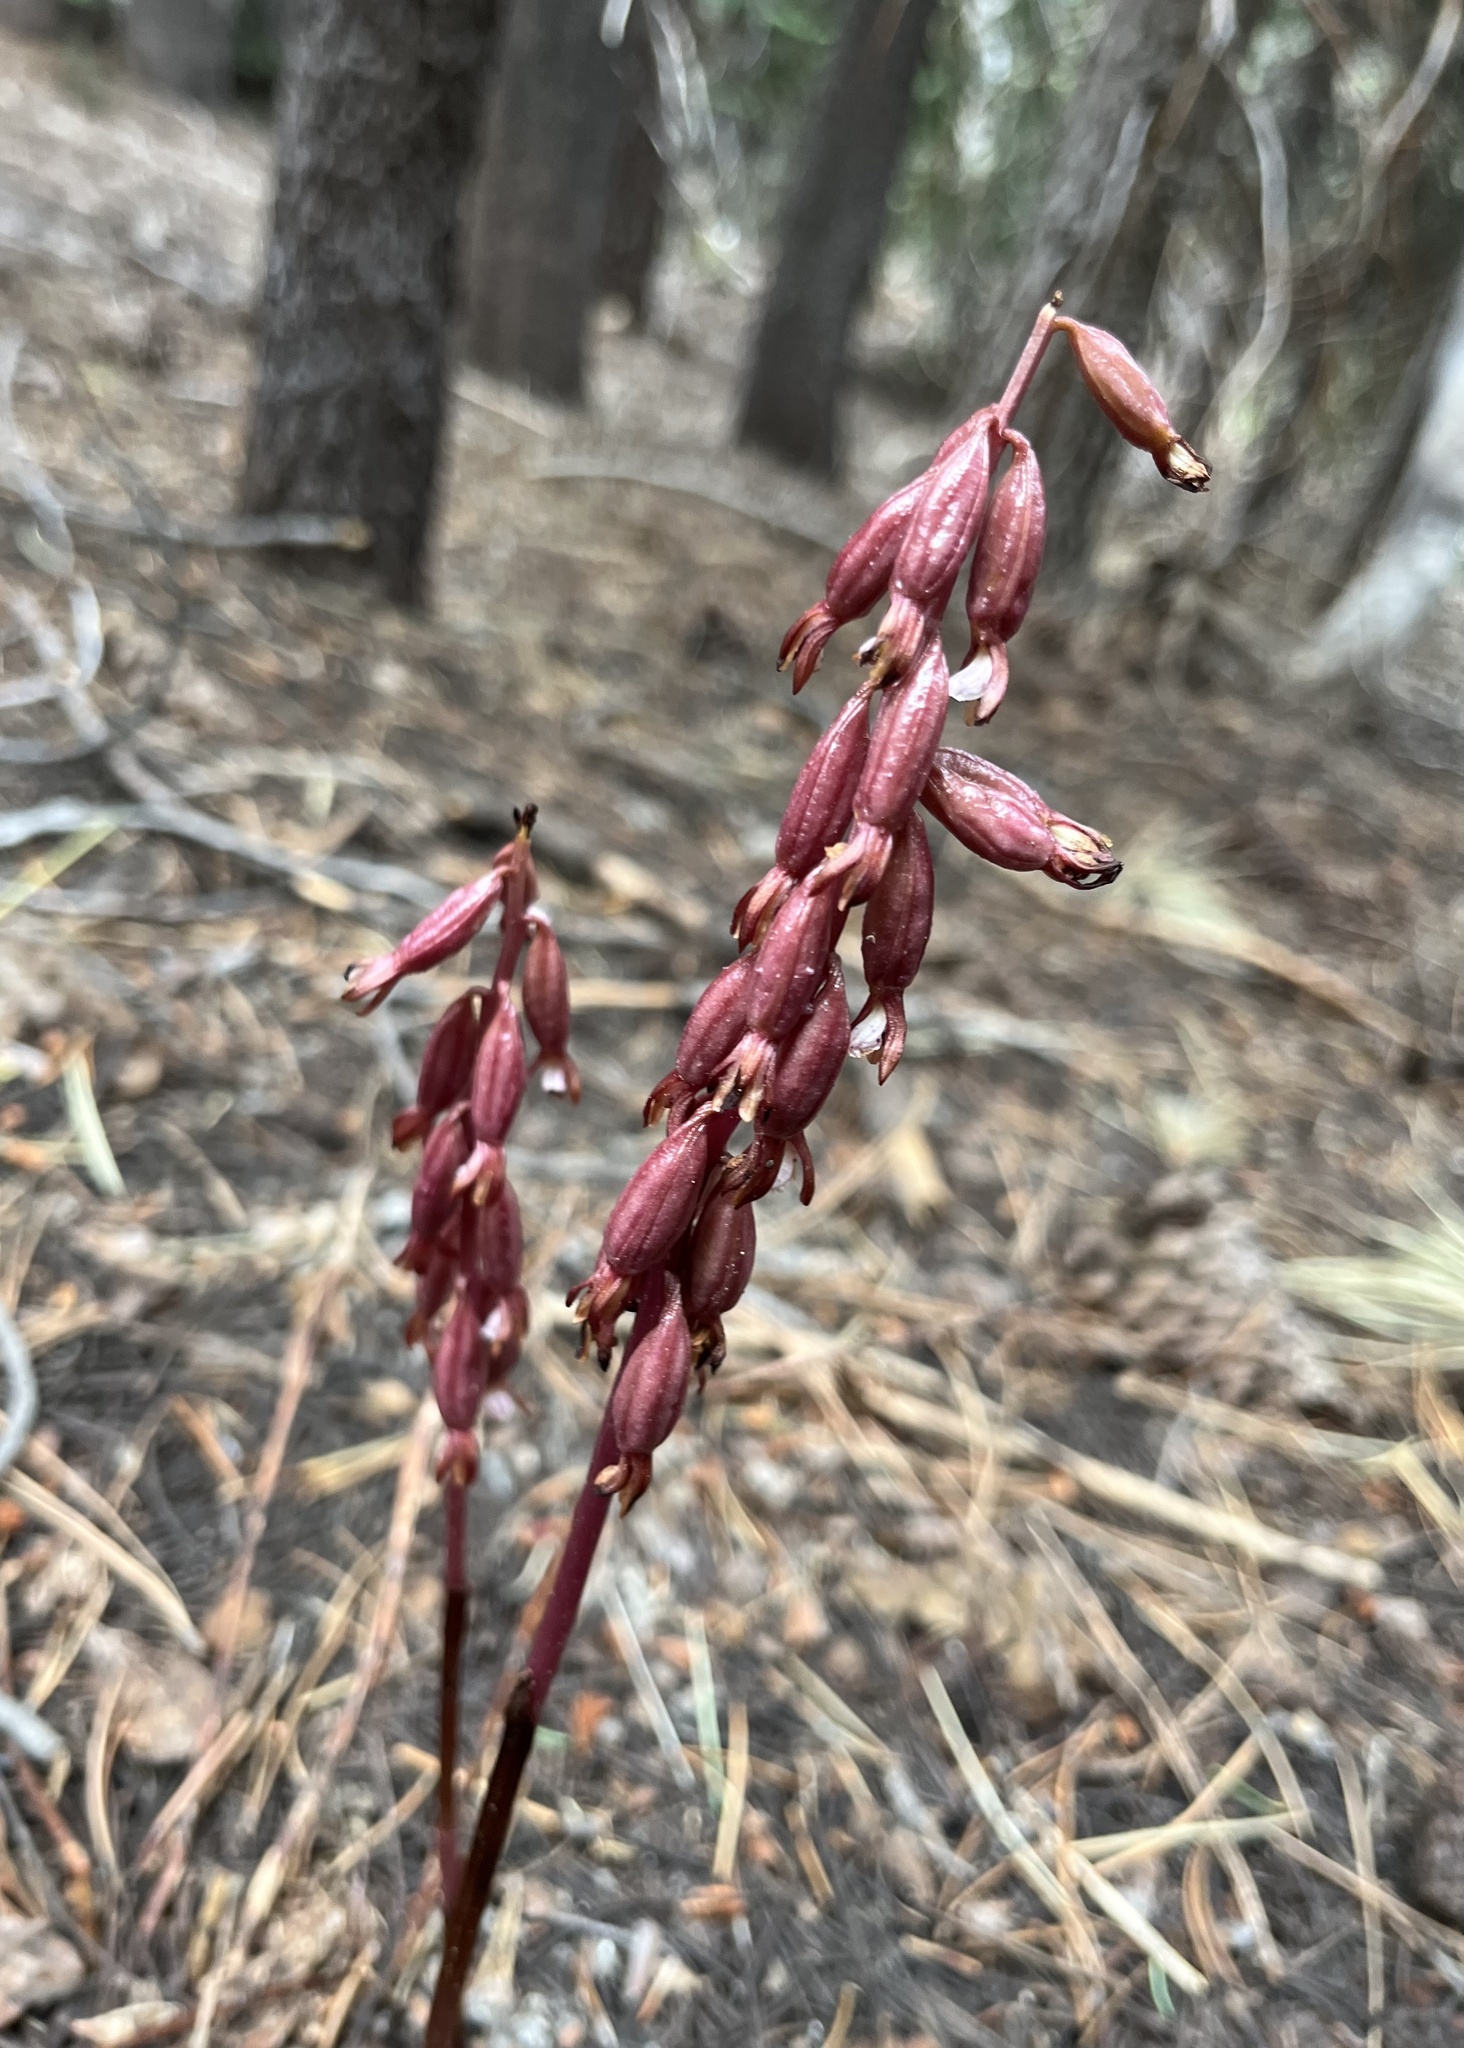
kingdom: Plantae
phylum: Tracheophyta
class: Liliopsida
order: Asparagales
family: Orchidaceae
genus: Corallorhiza
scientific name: Corallorhiza maculata
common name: Spotted coralroot
